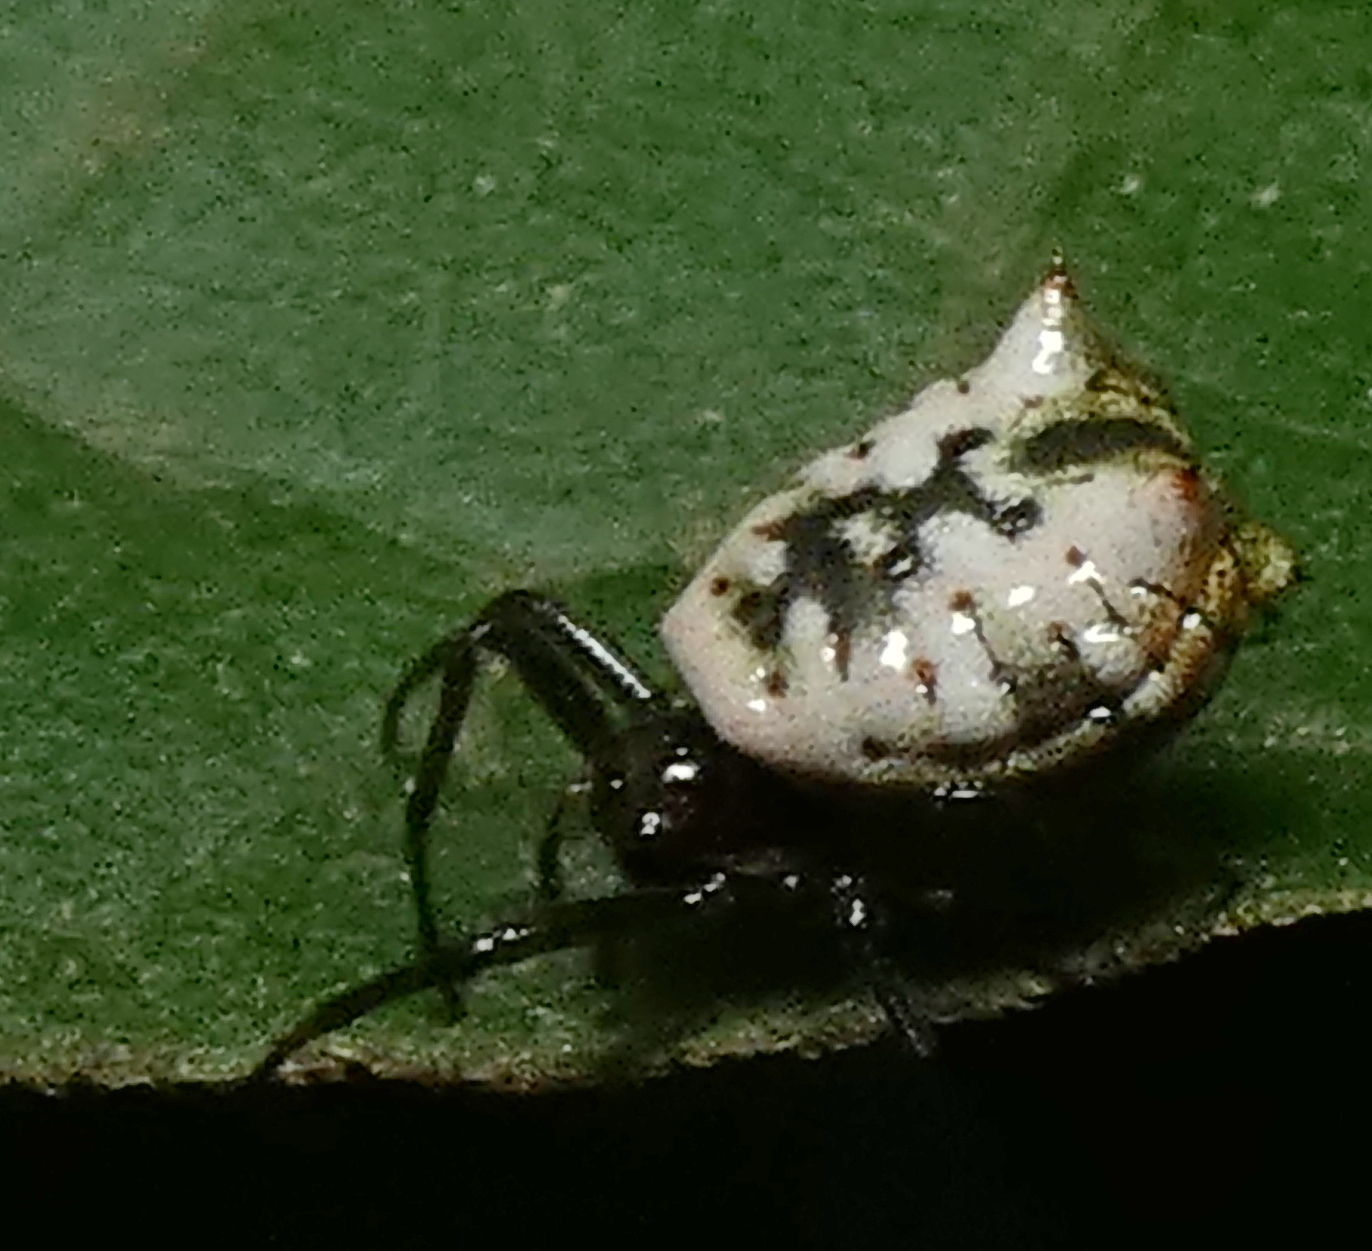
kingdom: Animalia
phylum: Arthropoda
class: Arachnida
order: Araneae
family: Araneidae
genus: Micrathena
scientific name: Micrathena patruelis
